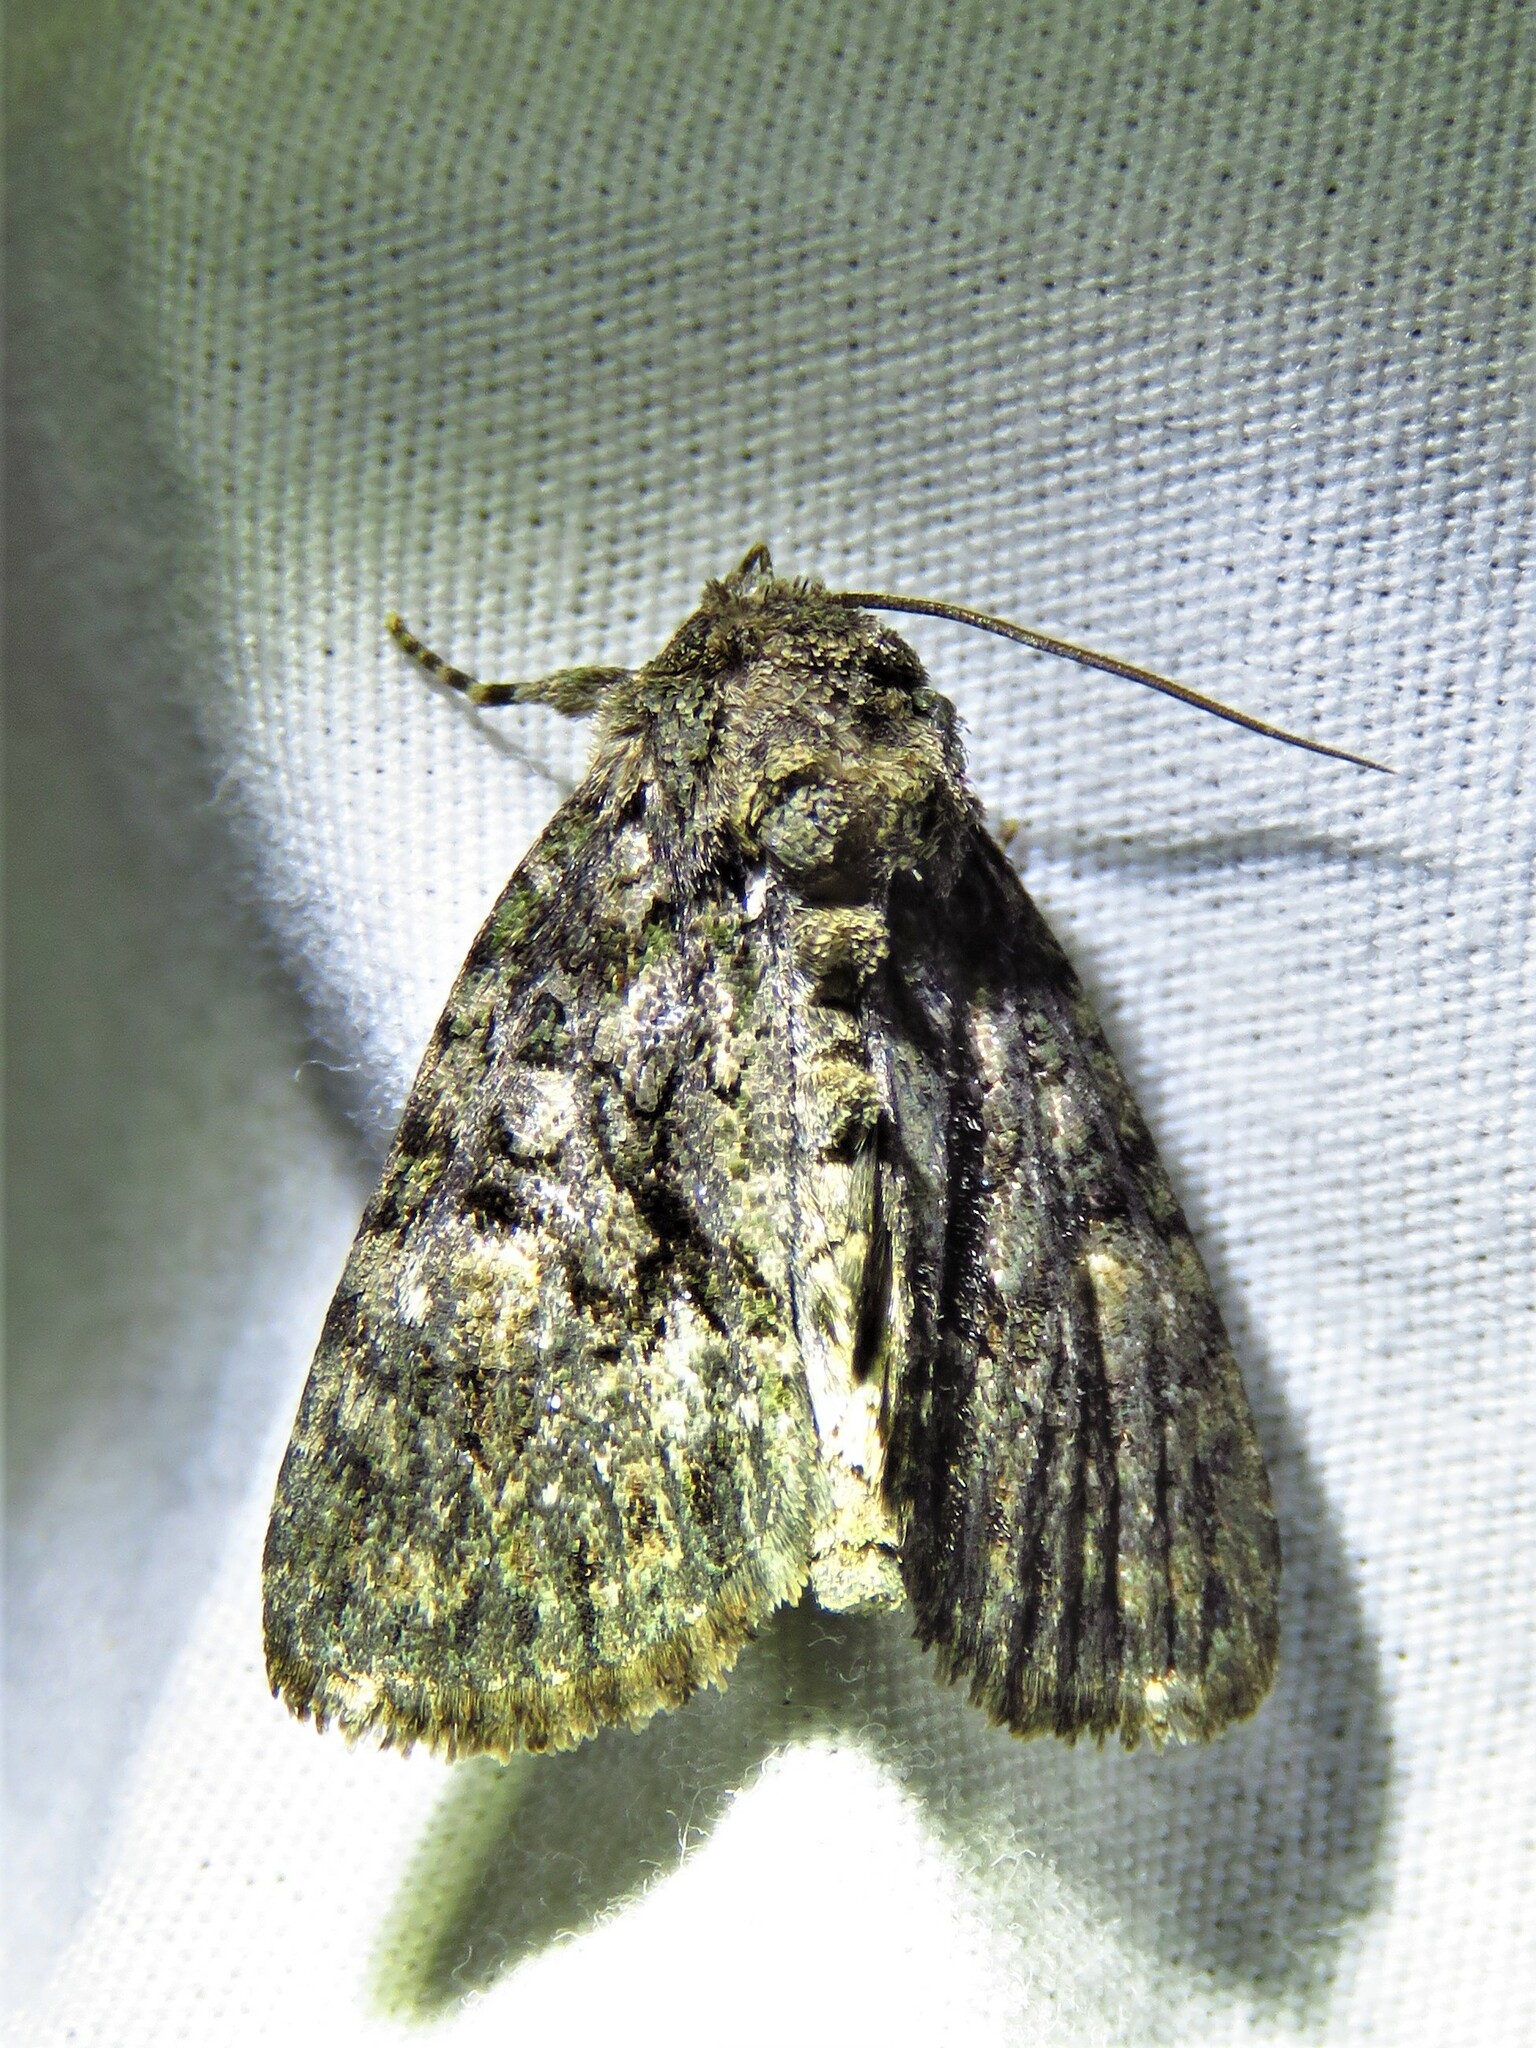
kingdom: Animalia
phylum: Arthropoda
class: Insecta
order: Lepidoptera
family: Noctuidae
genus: Phosphila
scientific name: Phosphila miselioides
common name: Spotted phosphila moth
